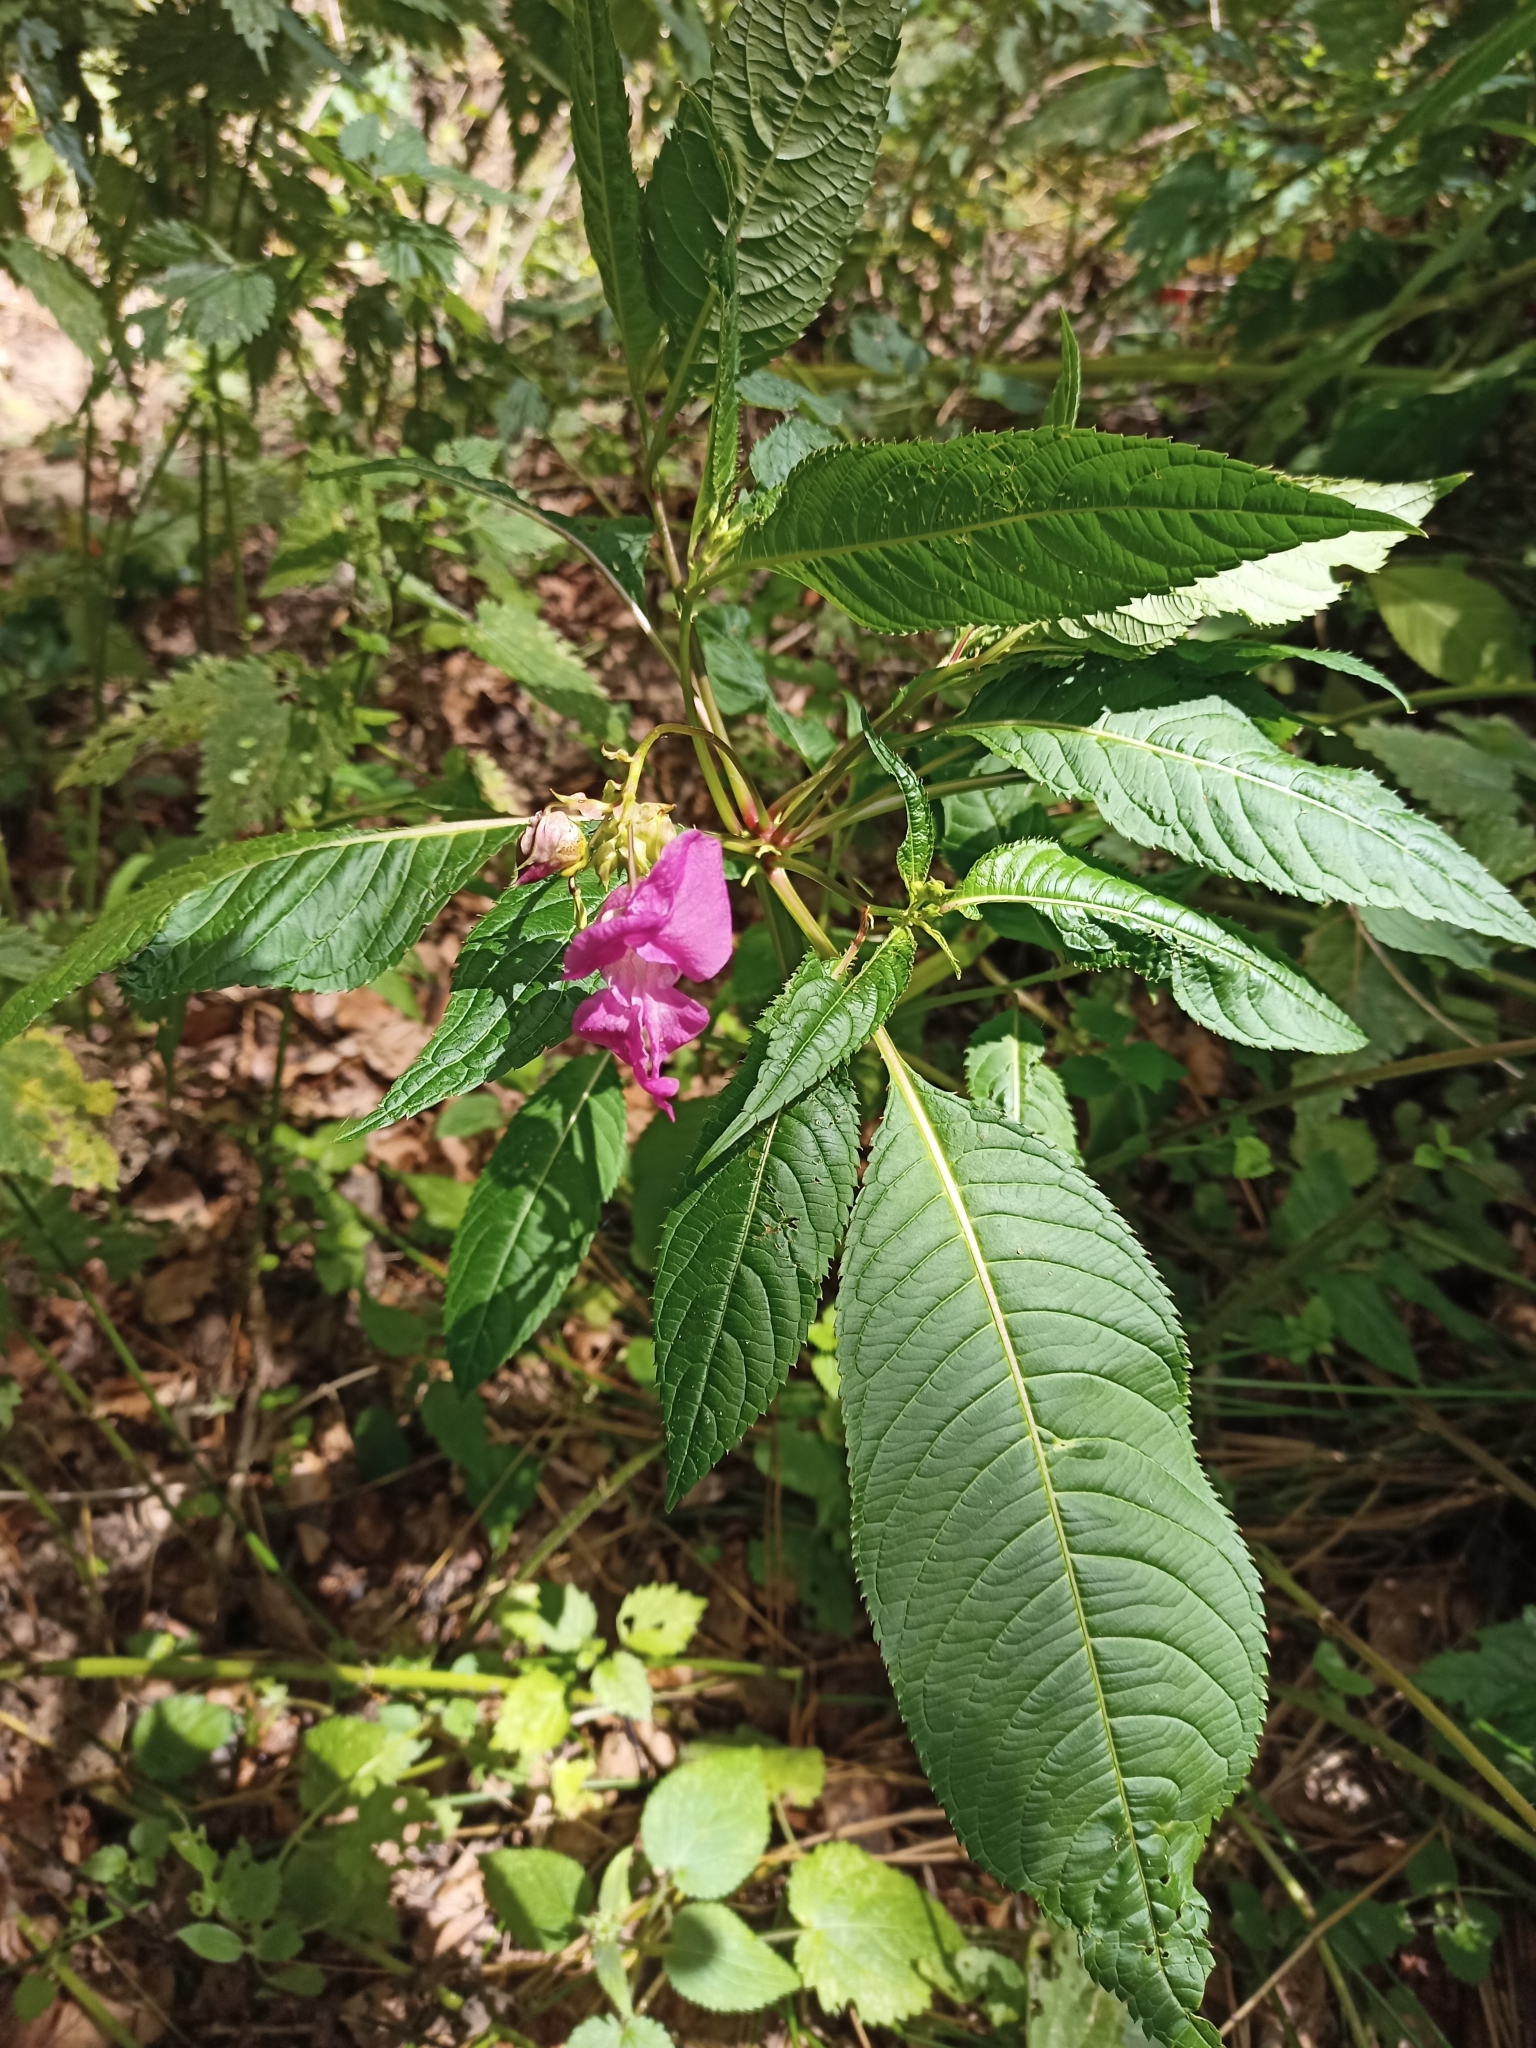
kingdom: Plantae
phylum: Tracheophyta
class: Magnoliopsida
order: Ericales
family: Balsaminaceae
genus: Impatiens
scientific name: Impatiens glandulifera
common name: Himalayan balsam
